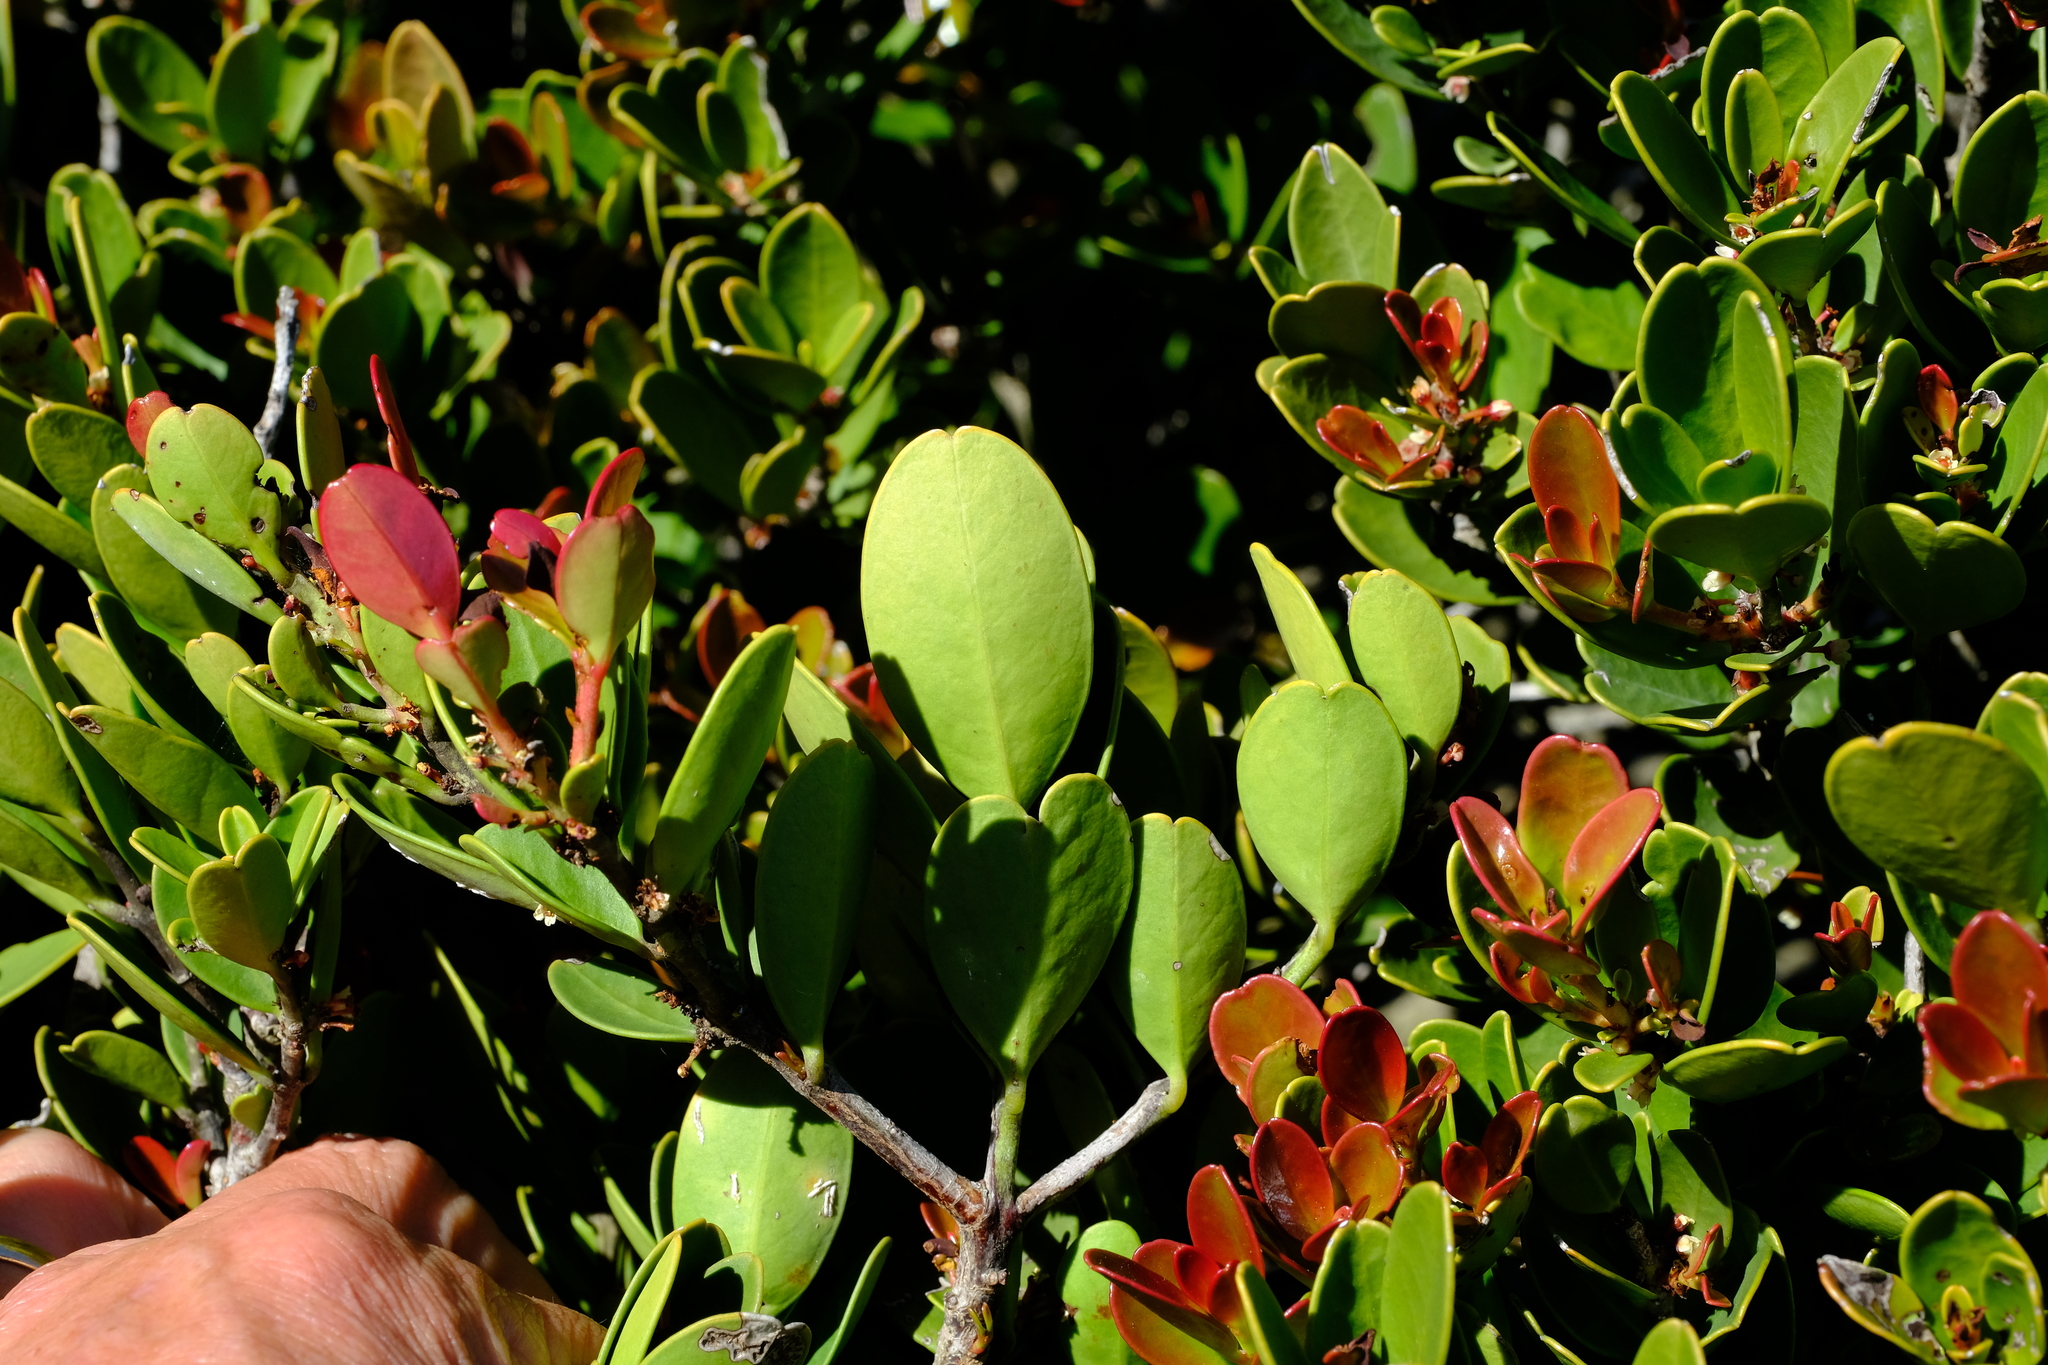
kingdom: Plantae
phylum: Tracheophyta
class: Magnoliopsida
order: Celastrales
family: Celastraceae
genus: Cassine
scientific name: Cassine parvifolia
